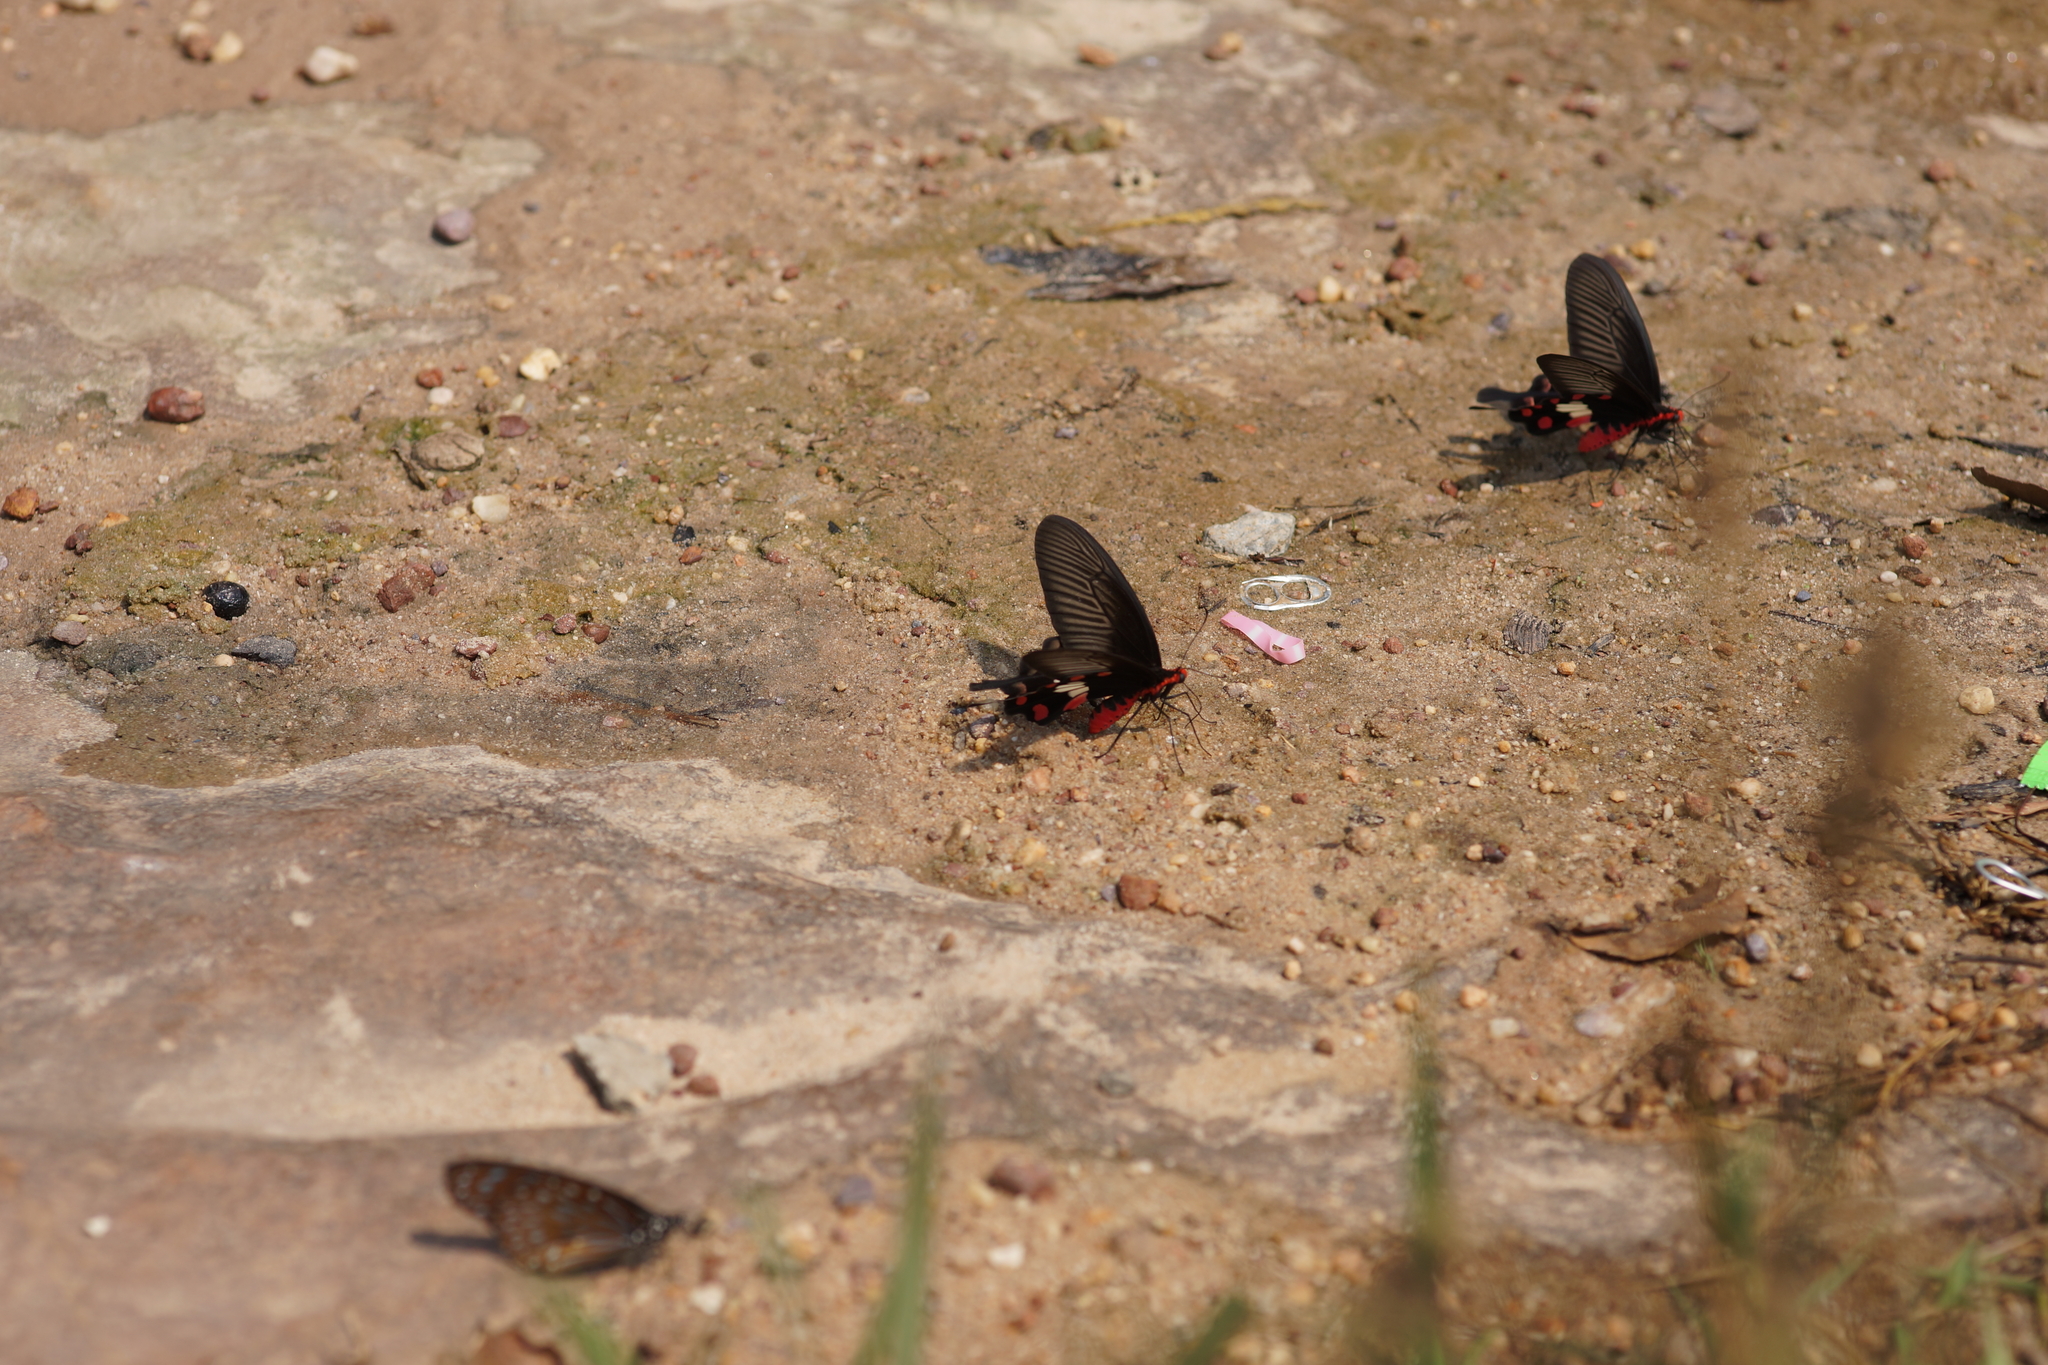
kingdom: Animalia
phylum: Arthropoda
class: Insecta
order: Lepidoptera
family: Papilionidae
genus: Pachliopta
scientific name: Pachliopta aristolochiae
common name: Common rose
